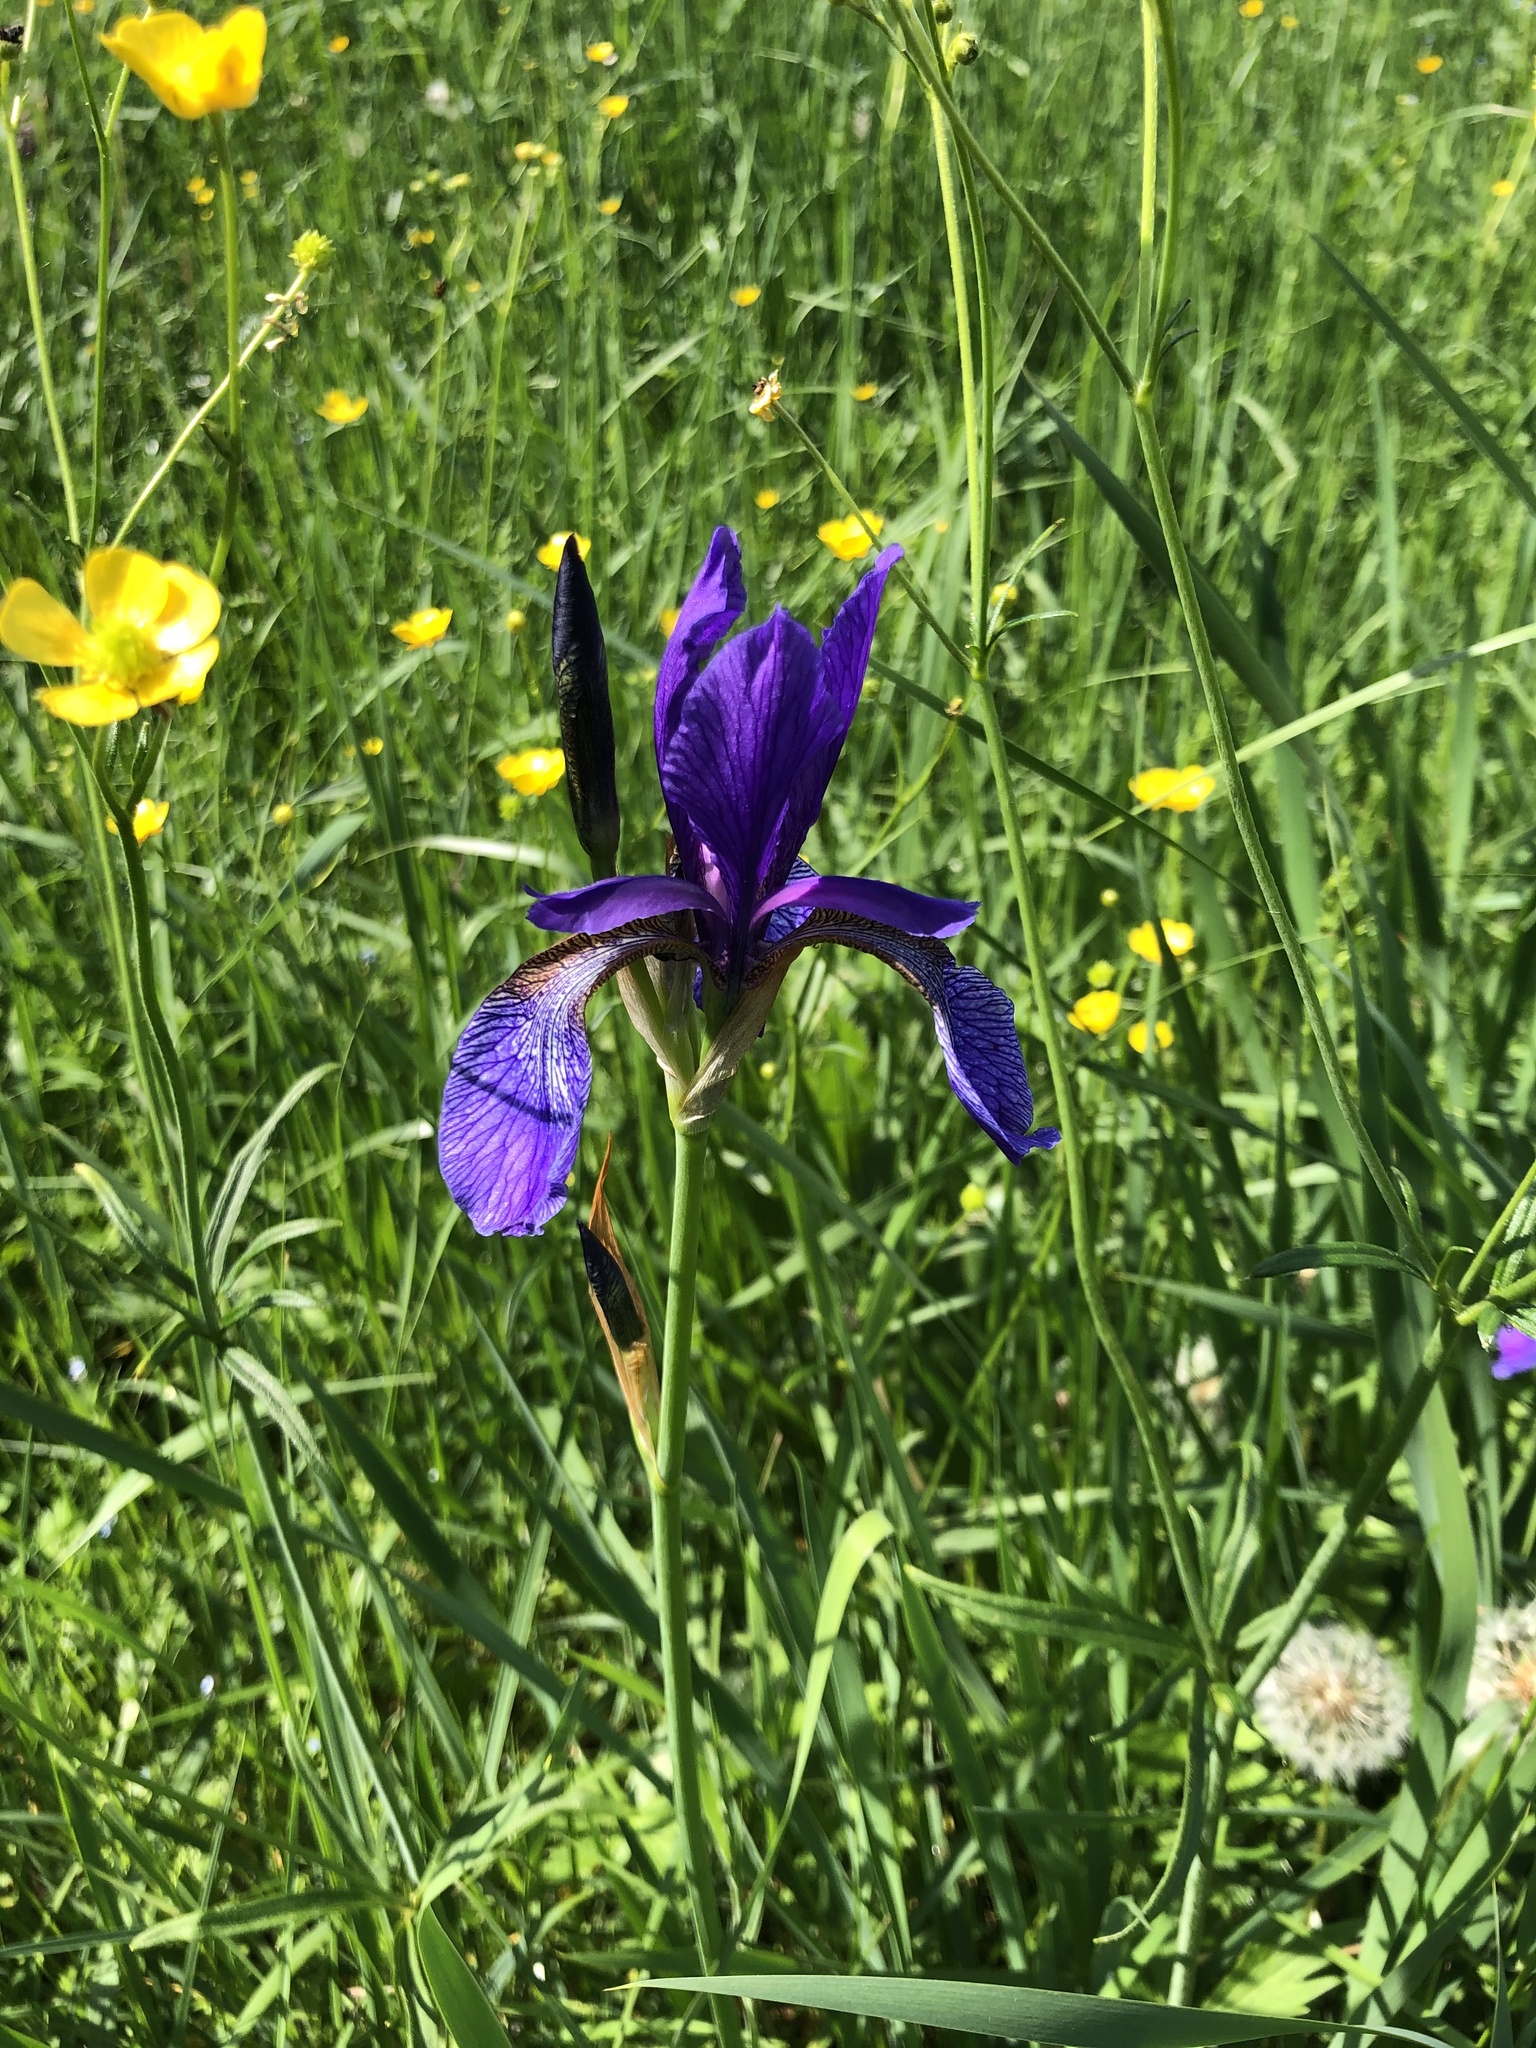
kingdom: Plantae
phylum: Tracheophyta
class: Liliopsida
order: Asparagales
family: Iridaceae
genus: Iris
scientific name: Iris sibirica
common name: Siberian iris
